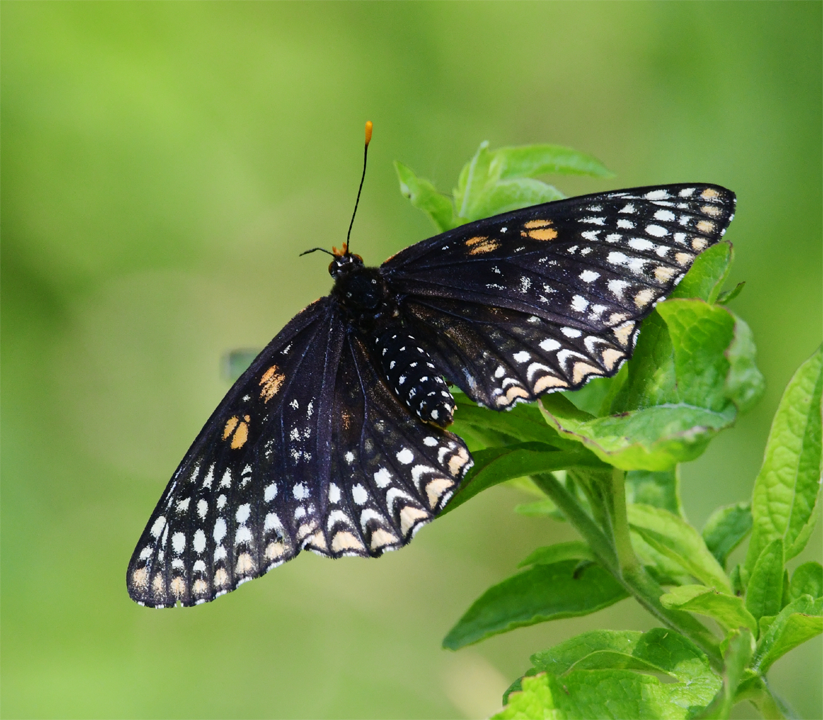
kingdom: Animalia
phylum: Arthropoda
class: Insecta
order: Lepidoptera
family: Nymphalidae
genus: Euphydryas
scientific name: Euphydryas phaeton
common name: Baltimore checkerspot
